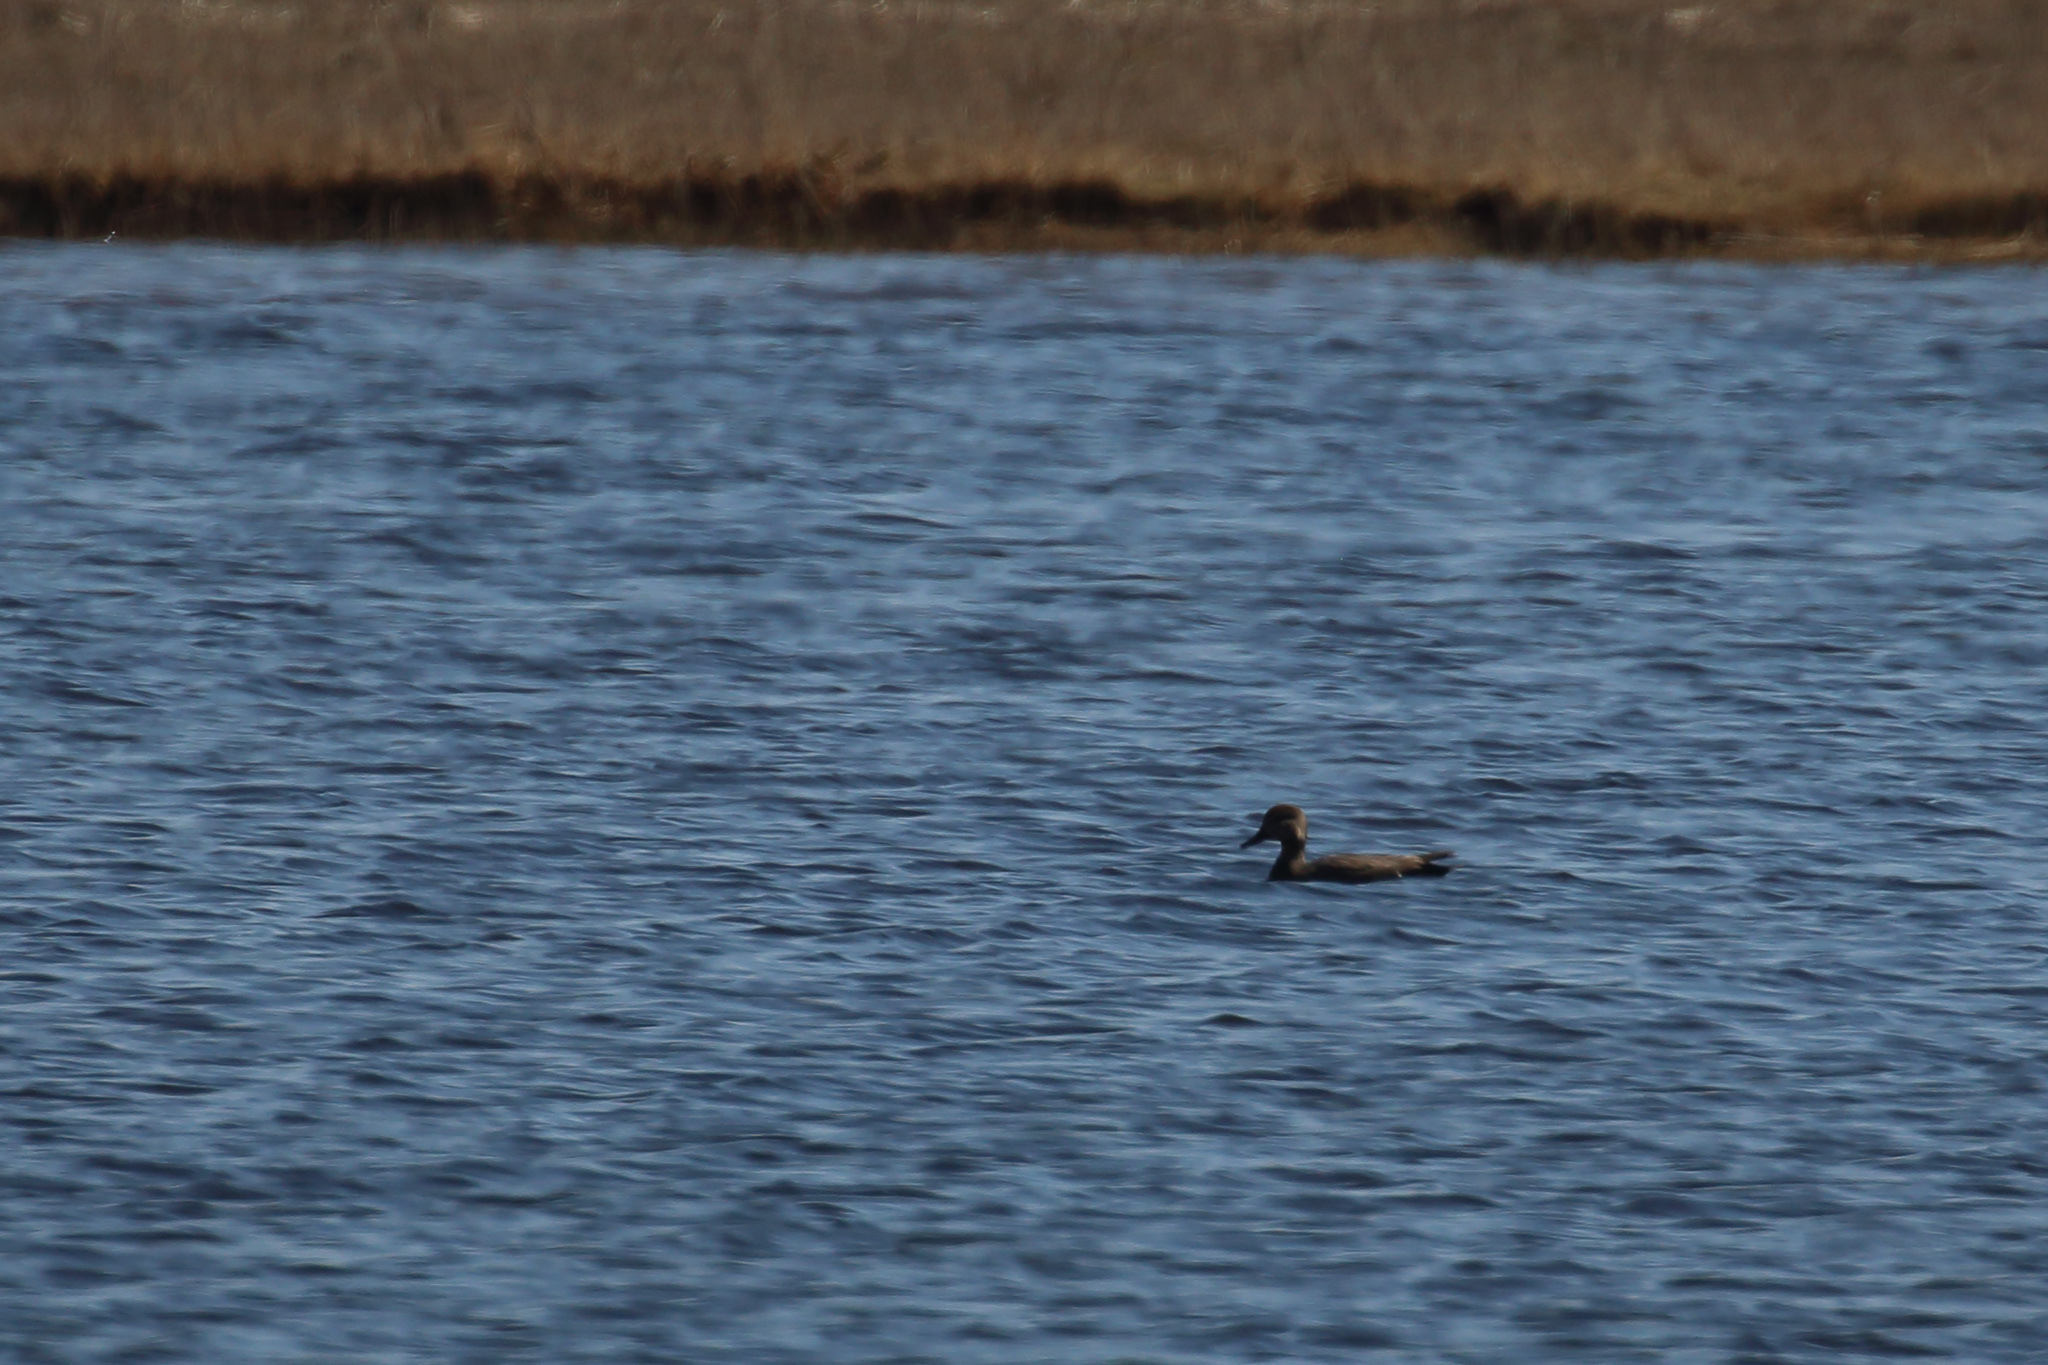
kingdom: Animalia
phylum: Chordata
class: Aves
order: Anseriformes
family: Anatidae
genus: Mareca
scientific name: Mareca strepera
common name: Gadwall
